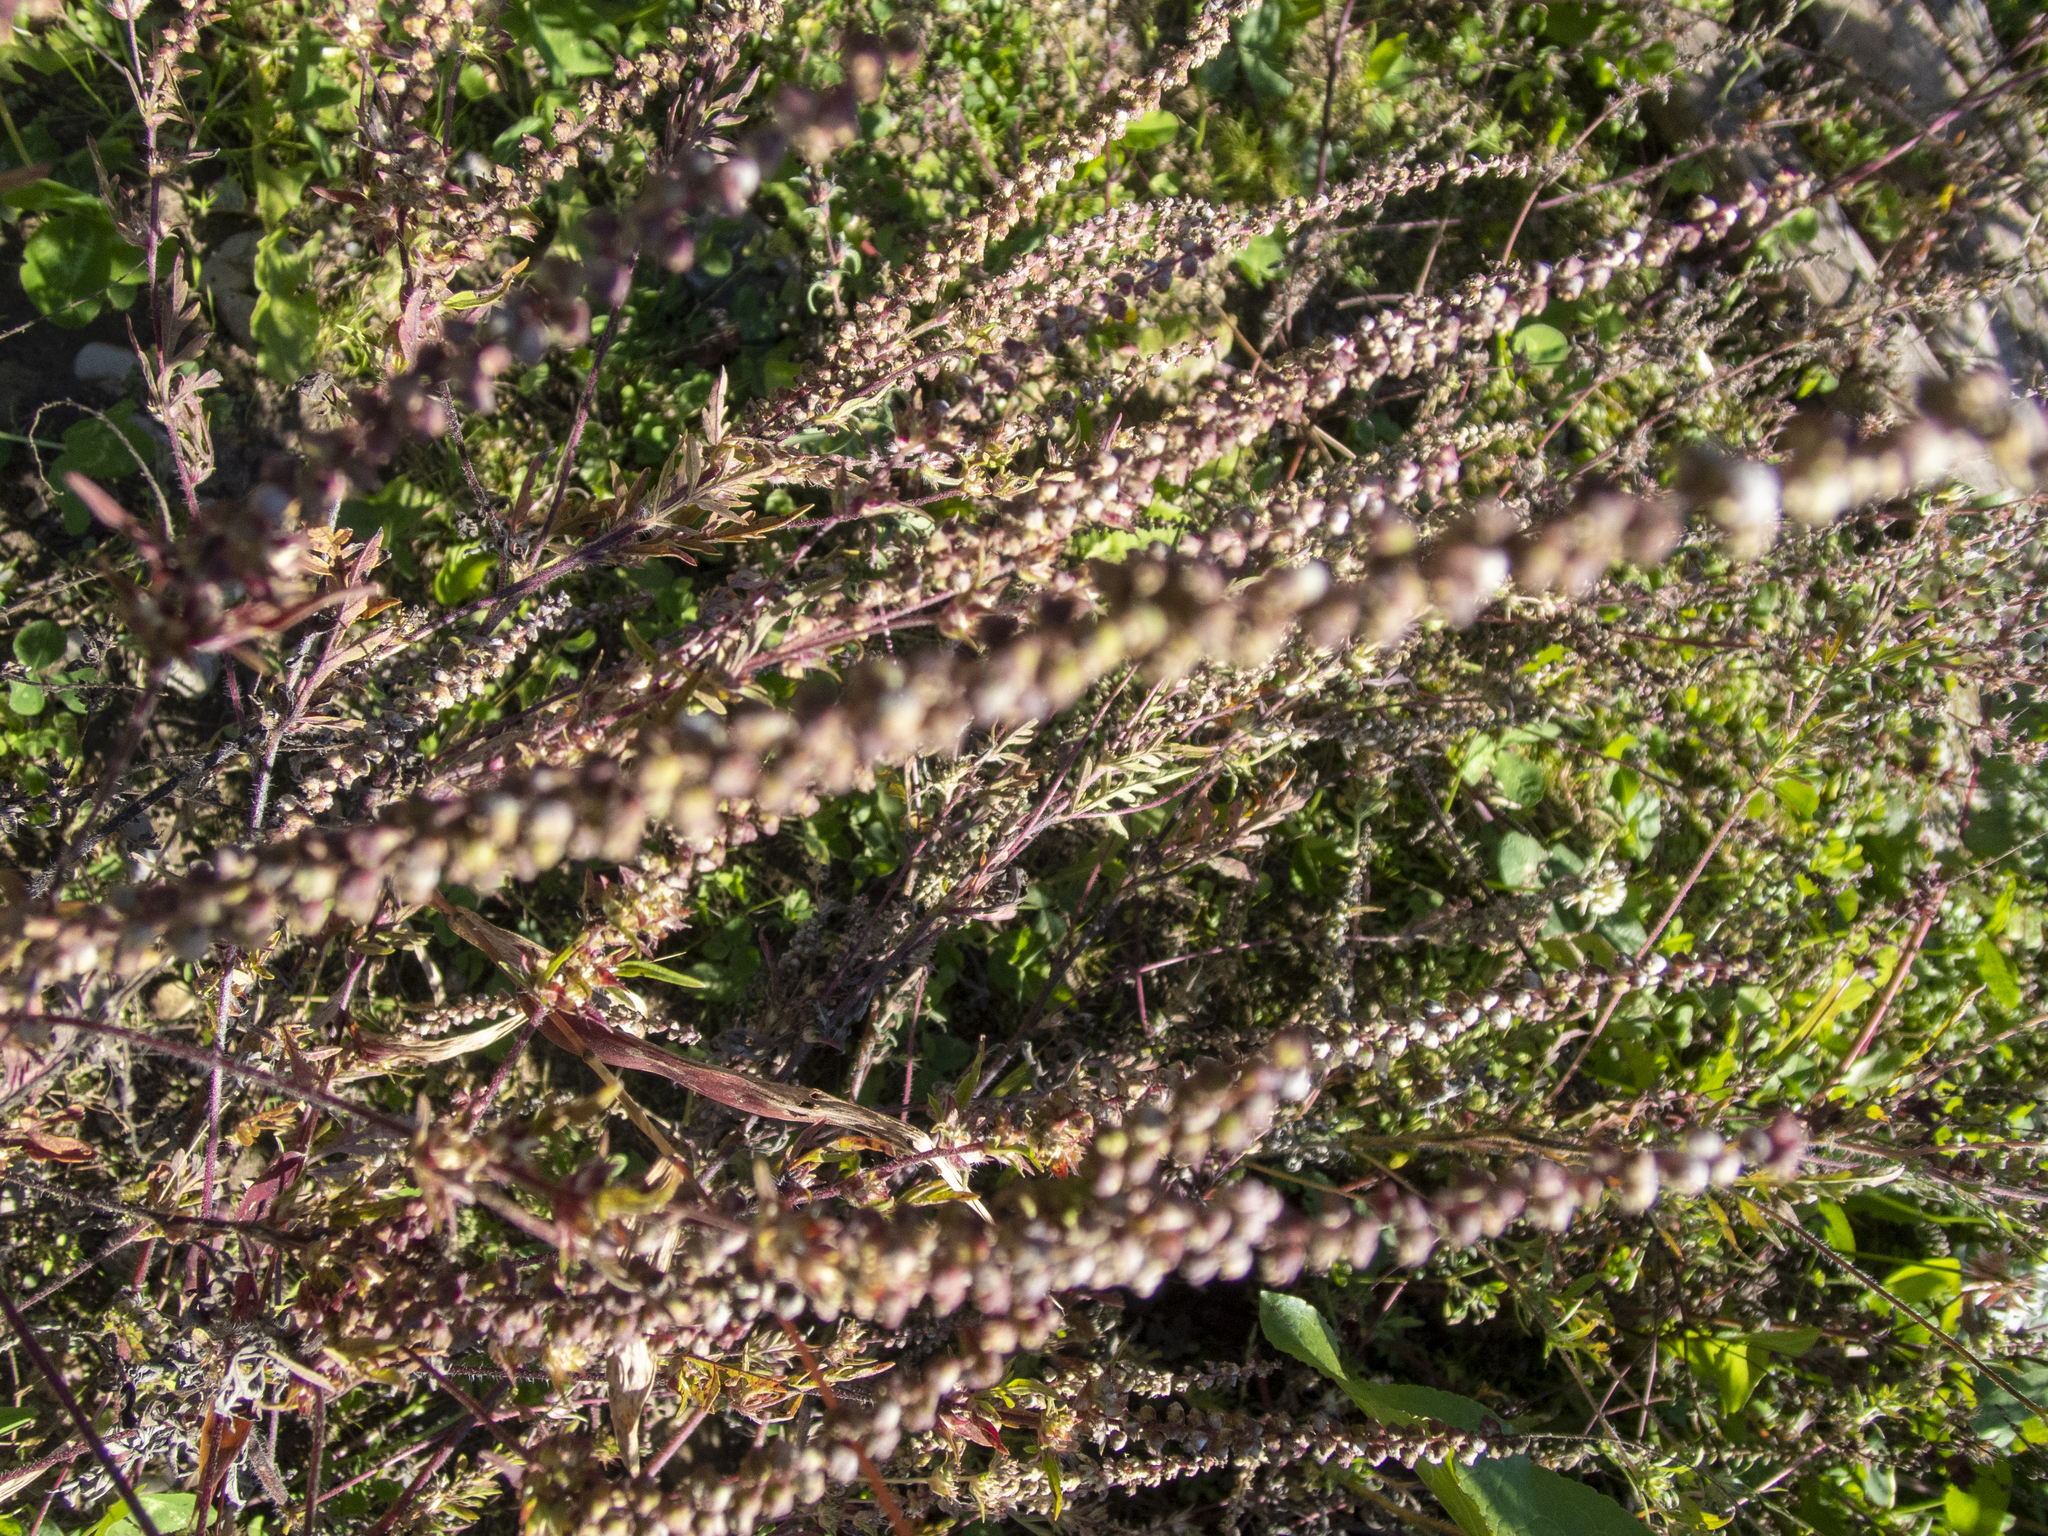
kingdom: Plantae
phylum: Tracheophyta
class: Magnoliopsida
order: Asterales
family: Asteraceae
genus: Ambrosia
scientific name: Ambrosia artemisiifolia
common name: Annual ragweed
